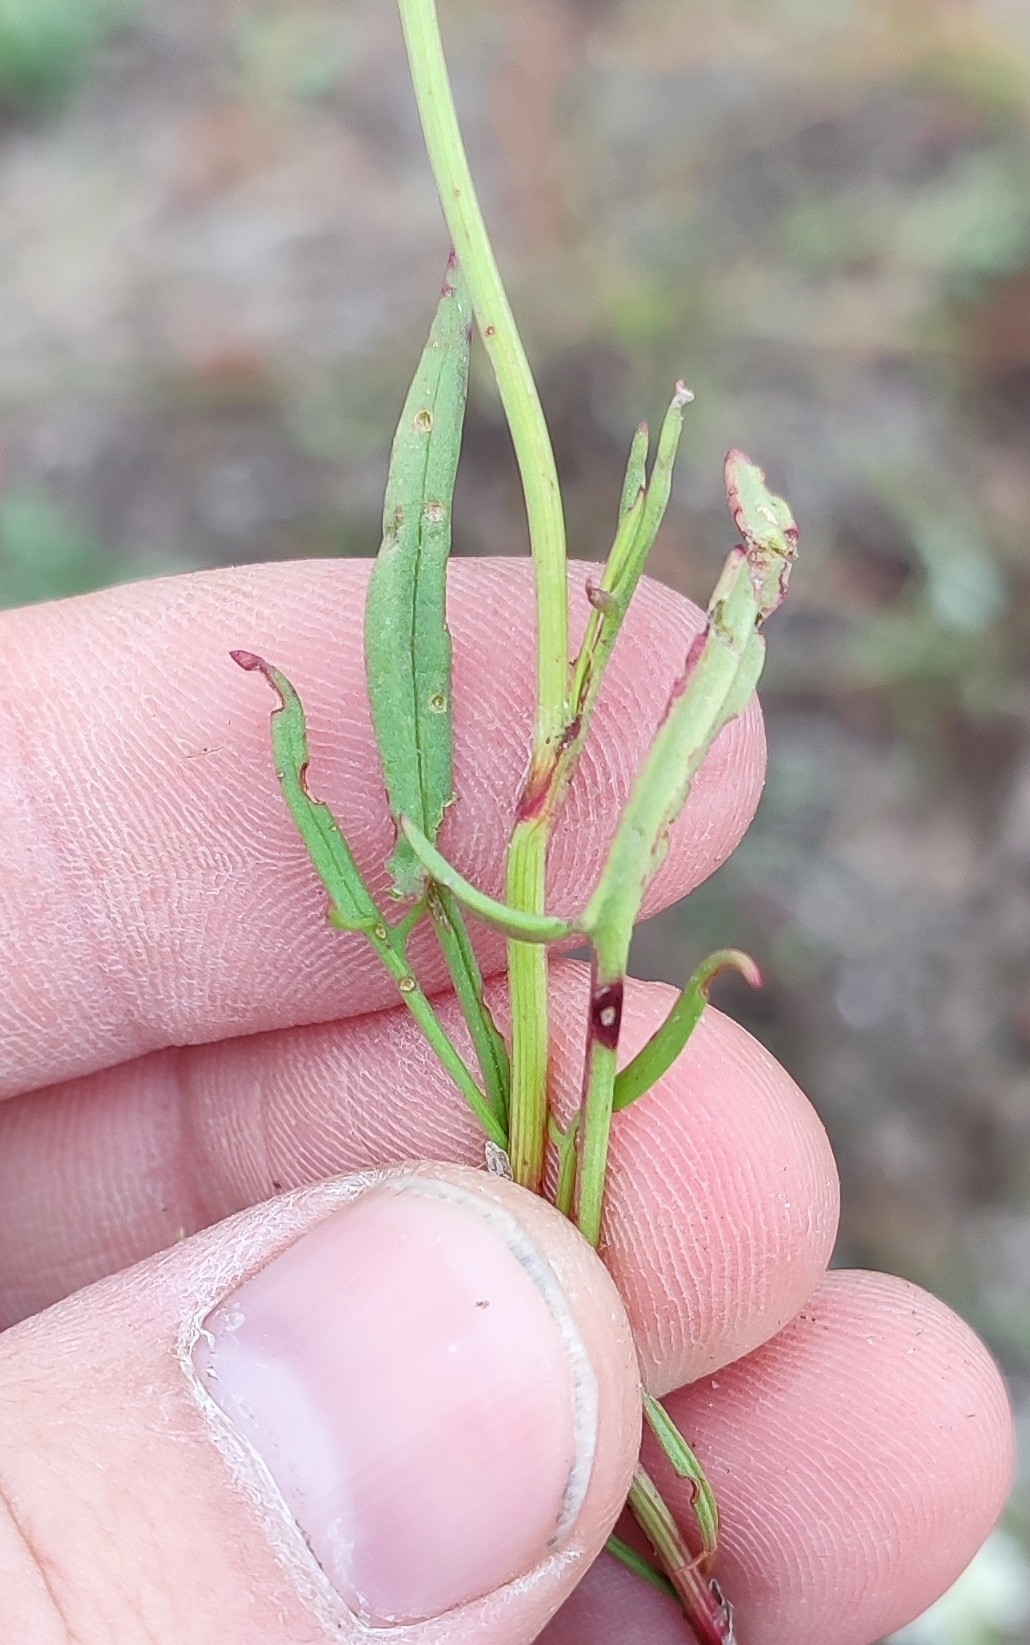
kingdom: Plantae
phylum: Tracheophyta
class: Magnoliopsida
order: Caryophyllales
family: Polygonaceae
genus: Rumex
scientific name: Rumex acetosella
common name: Common sheep sorrel
